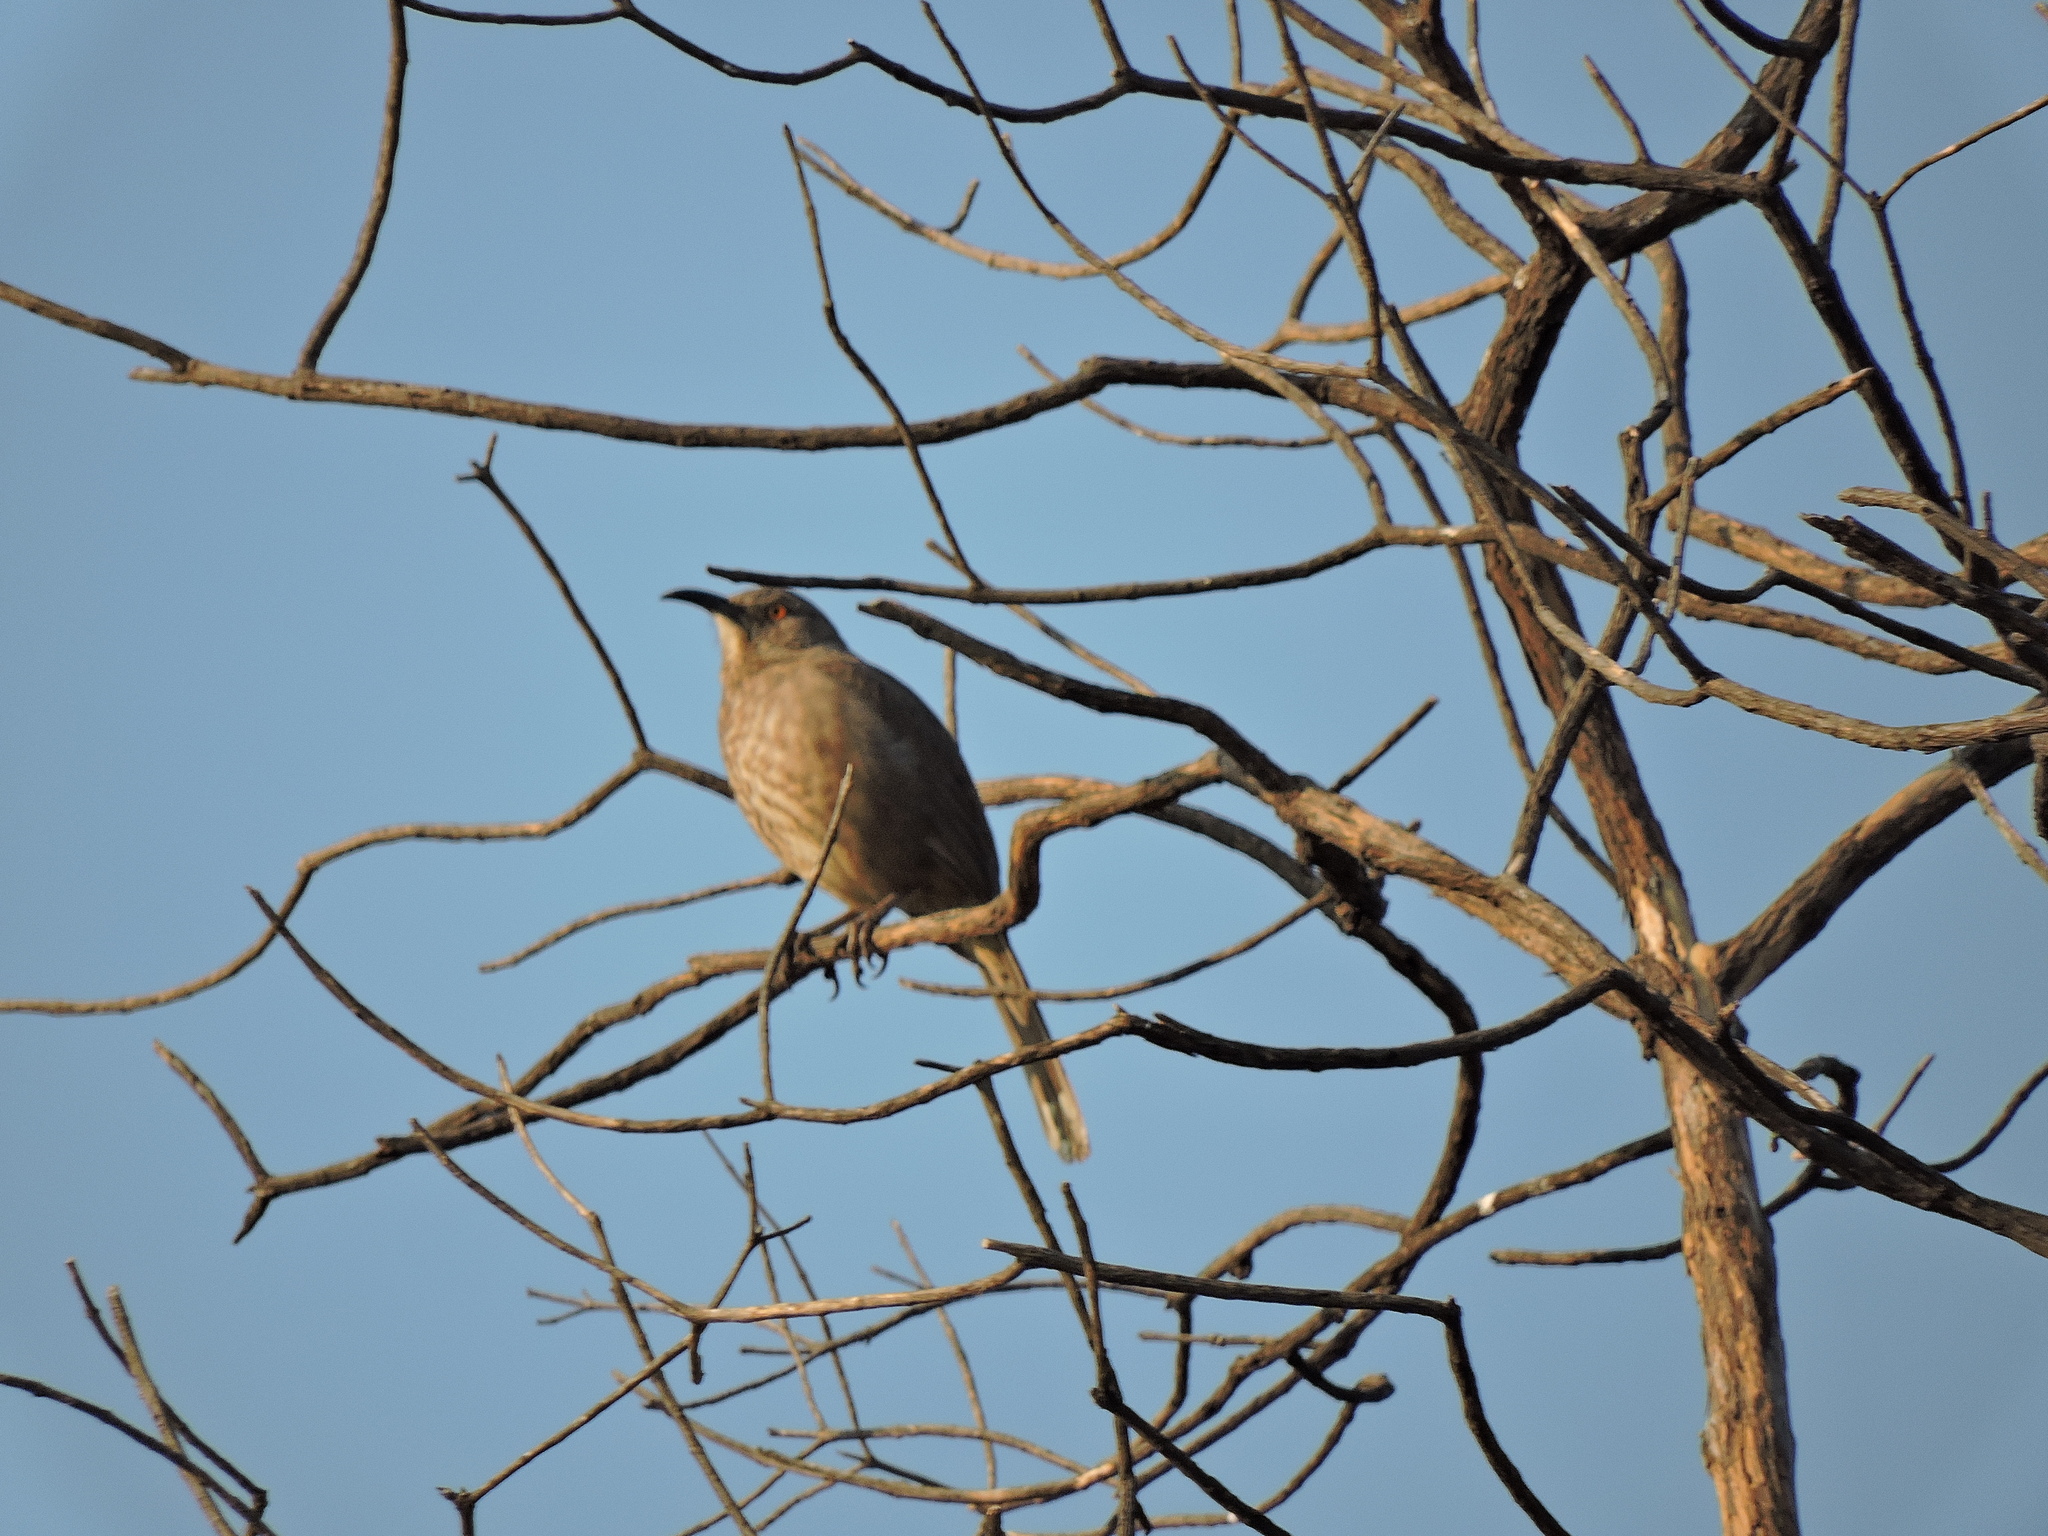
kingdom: Animalia
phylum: Chordata
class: Aves
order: Passeriformes
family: Mimidae
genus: Toxostoma
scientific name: Toxostoma curvirostre
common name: Curve-billed thrasher
